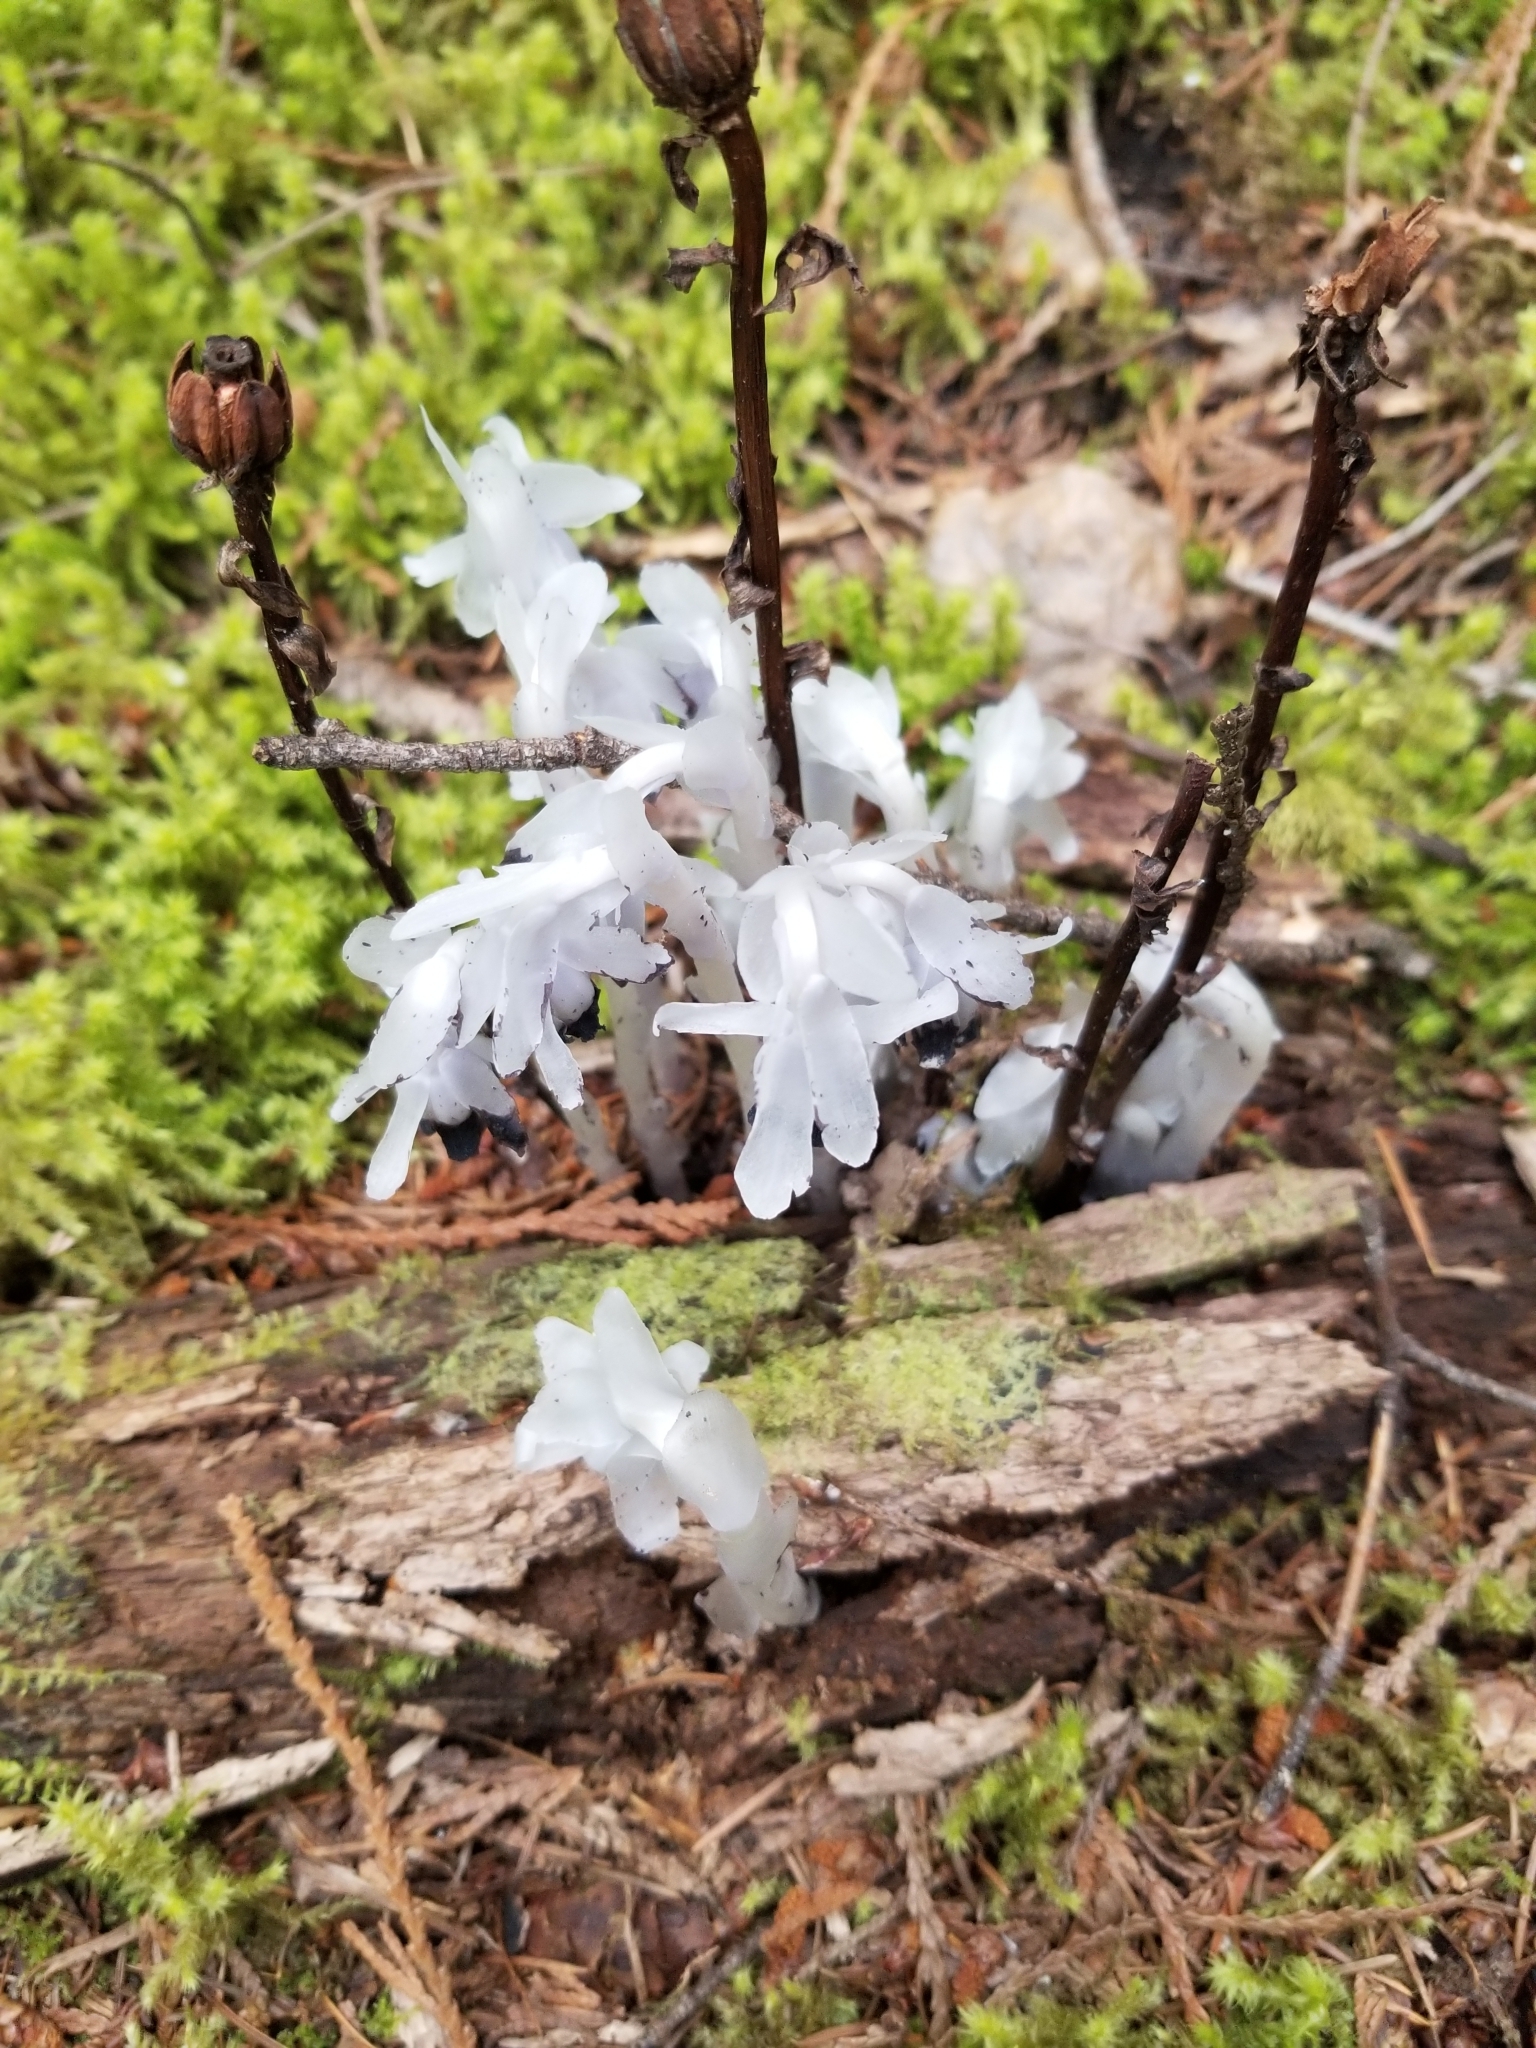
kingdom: Plantae
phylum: Tracheophyta
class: Magnoliopsida
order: Ericales
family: Ericaceae
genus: Monotropa
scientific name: Monotropa uniflora
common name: Convulsion root
